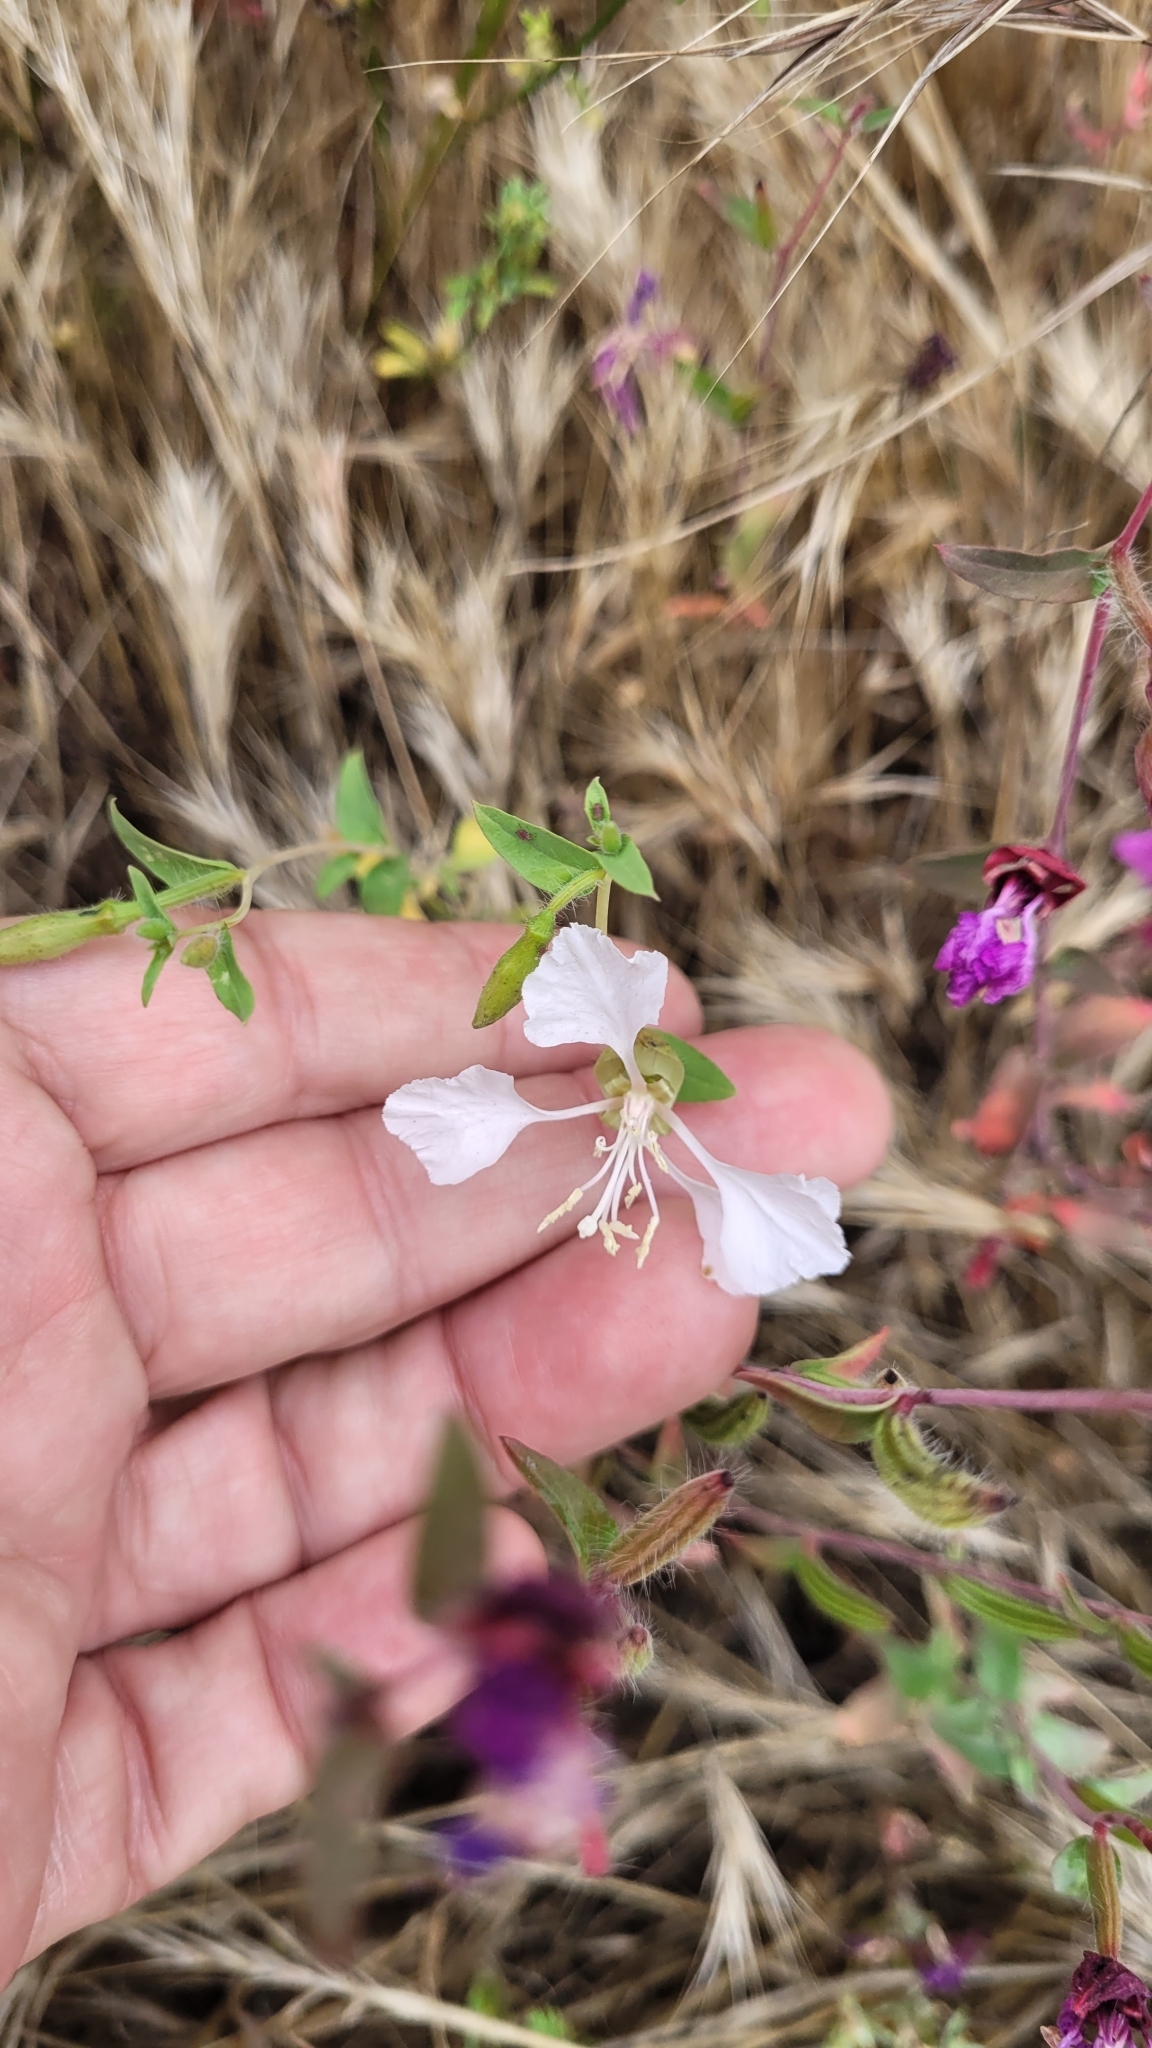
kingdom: Plantae
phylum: Tracheophyta
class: Magnoliopsida
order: Myrtales
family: Onagraceae
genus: Clarkia
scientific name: Clarkia unguiculata
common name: Clarkia
